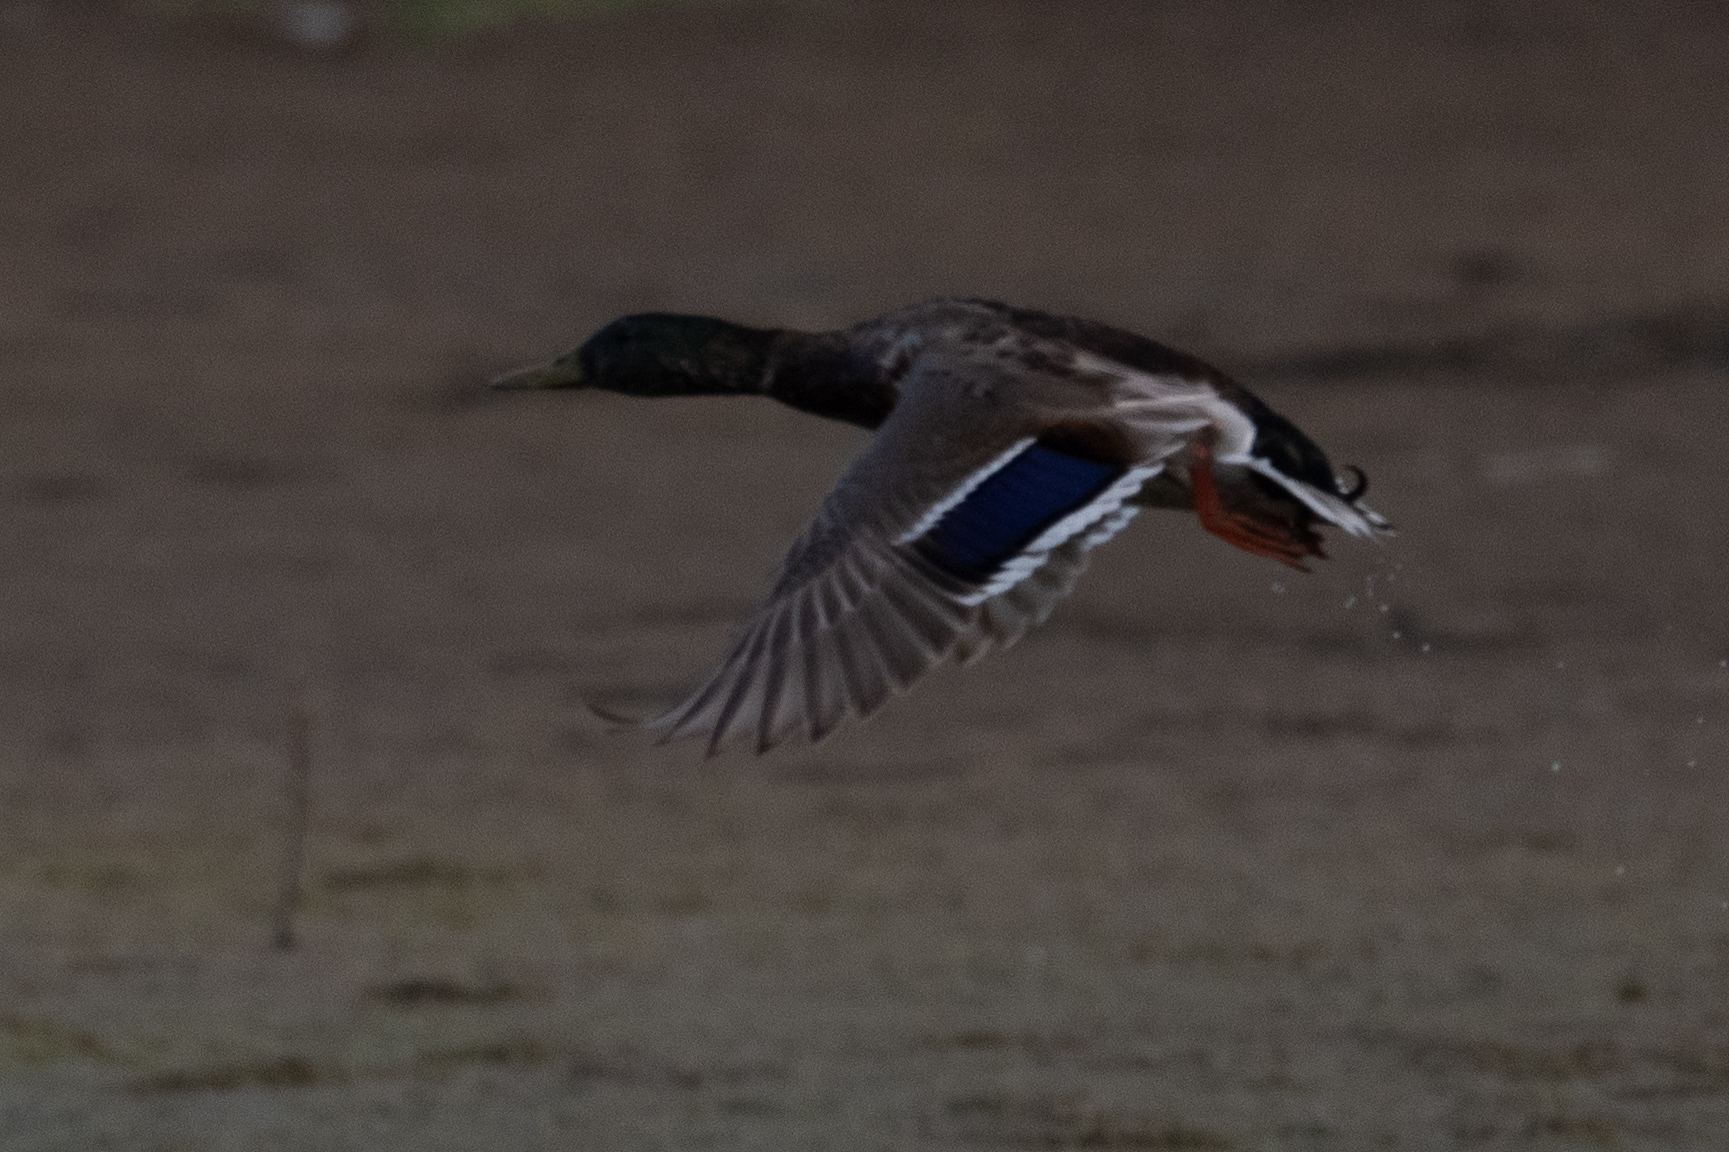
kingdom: Animalia
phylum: Chordata
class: Aves
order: Anseriformes
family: Anatidae
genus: Anas
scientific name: Anas platyrhynchos
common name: Mallard
